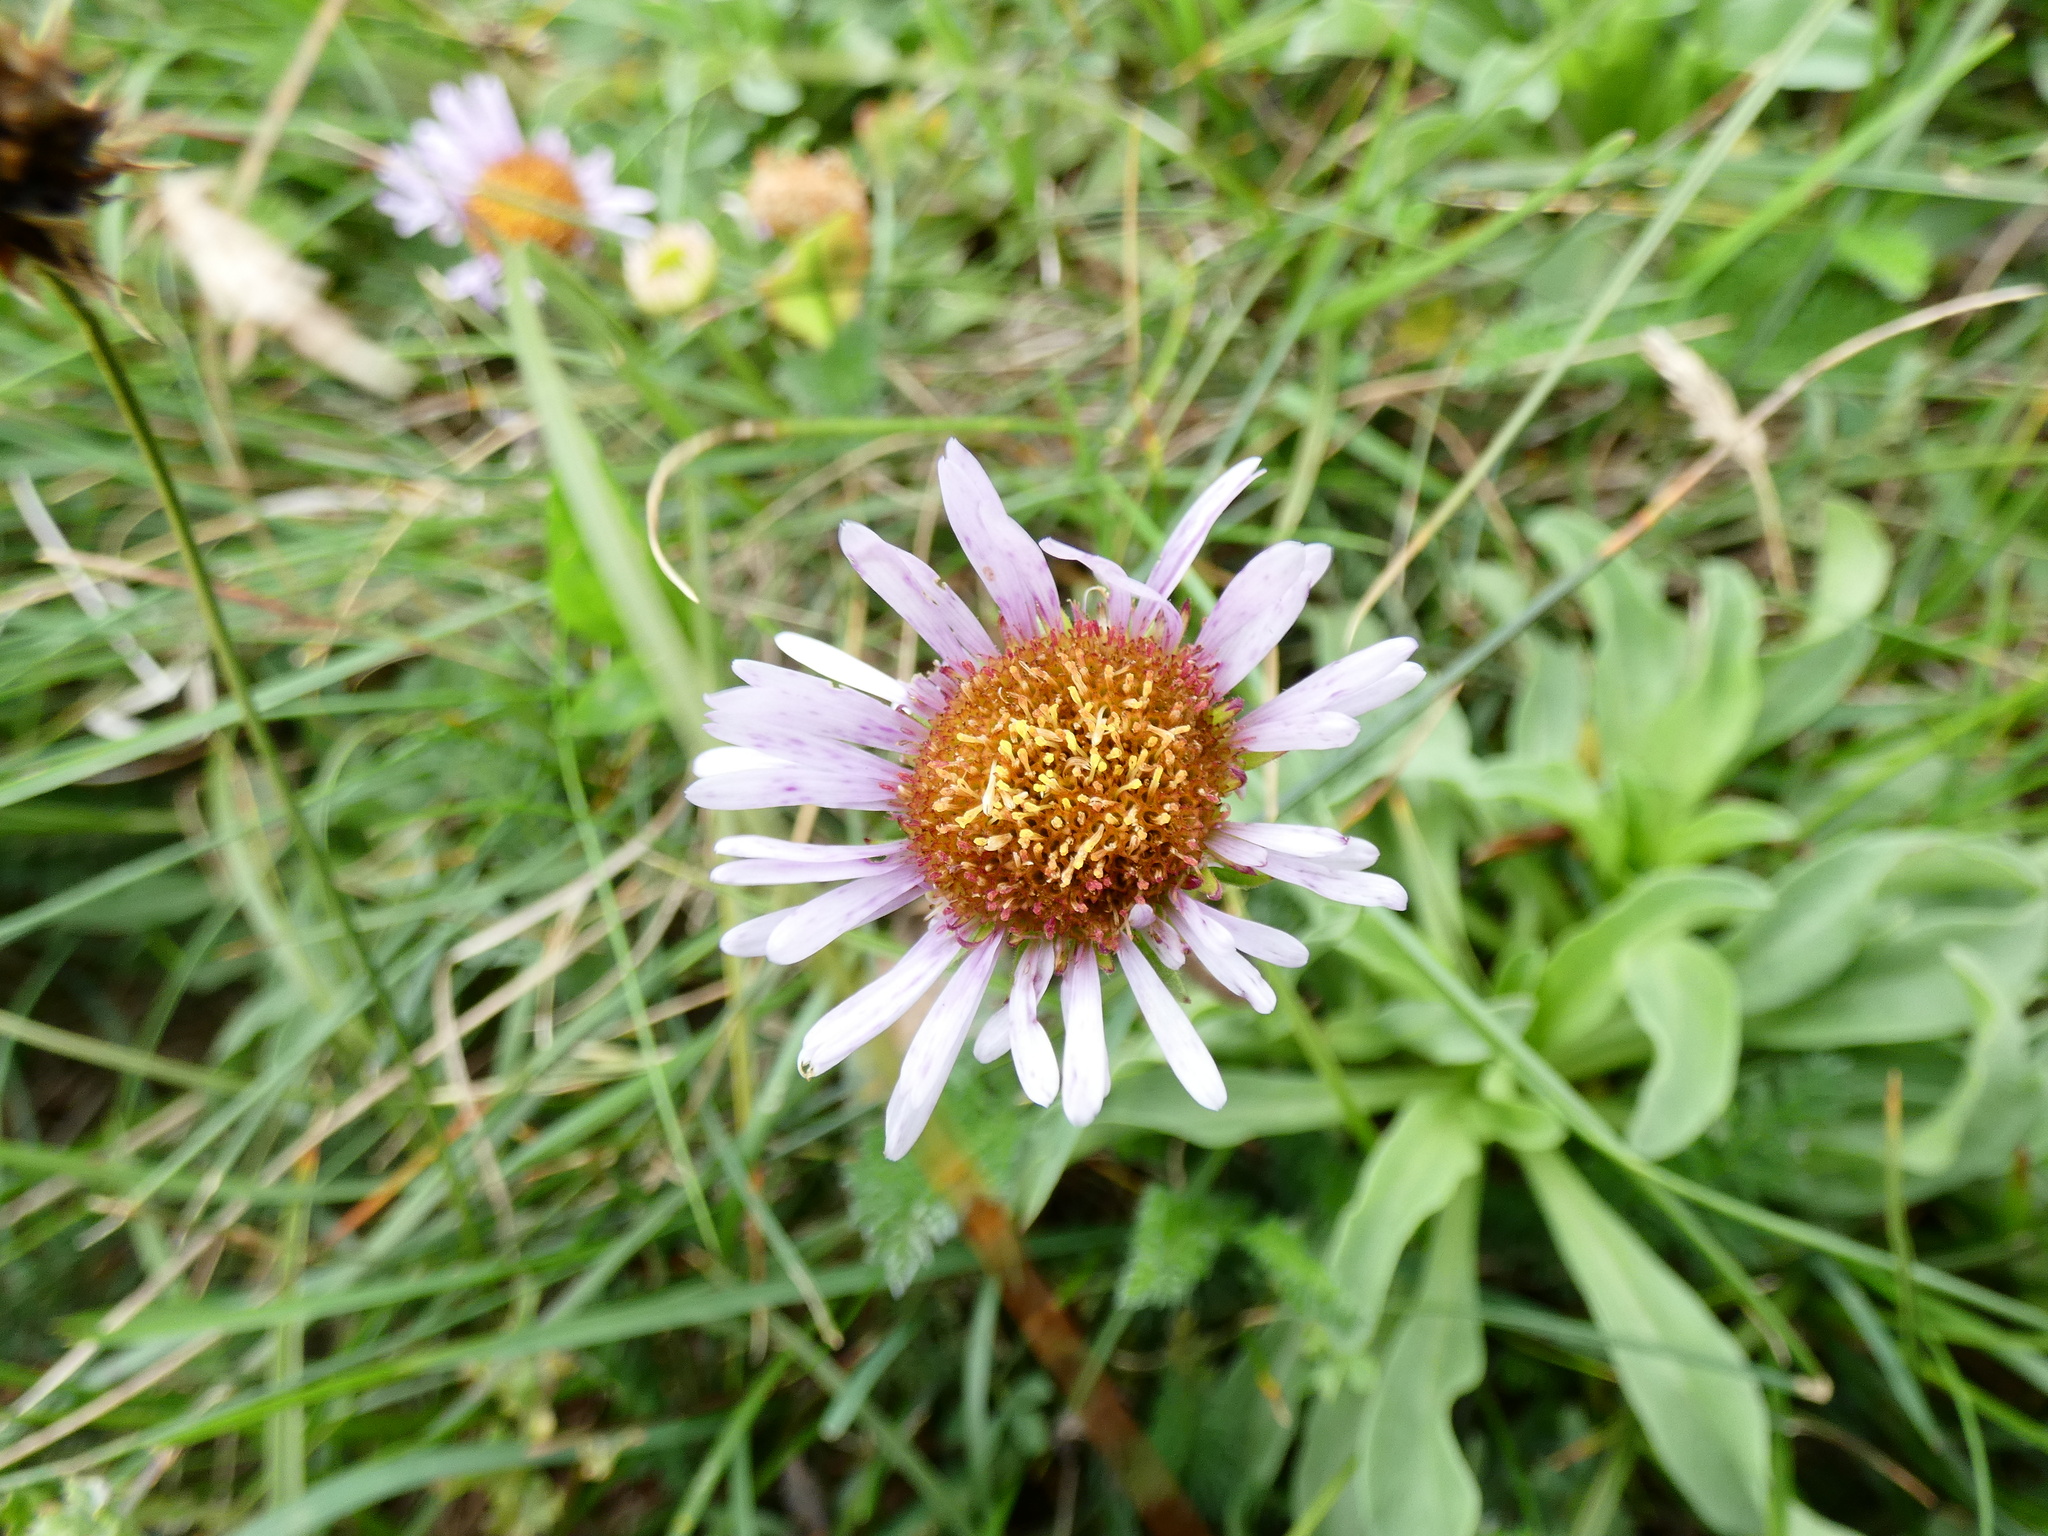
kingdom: Plantae
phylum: Tracheophyta
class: Magnoliopsida
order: Asterales
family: Asteraceae
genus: Erigeron
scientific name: Erigeron glaucus
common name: Seaside daisy
